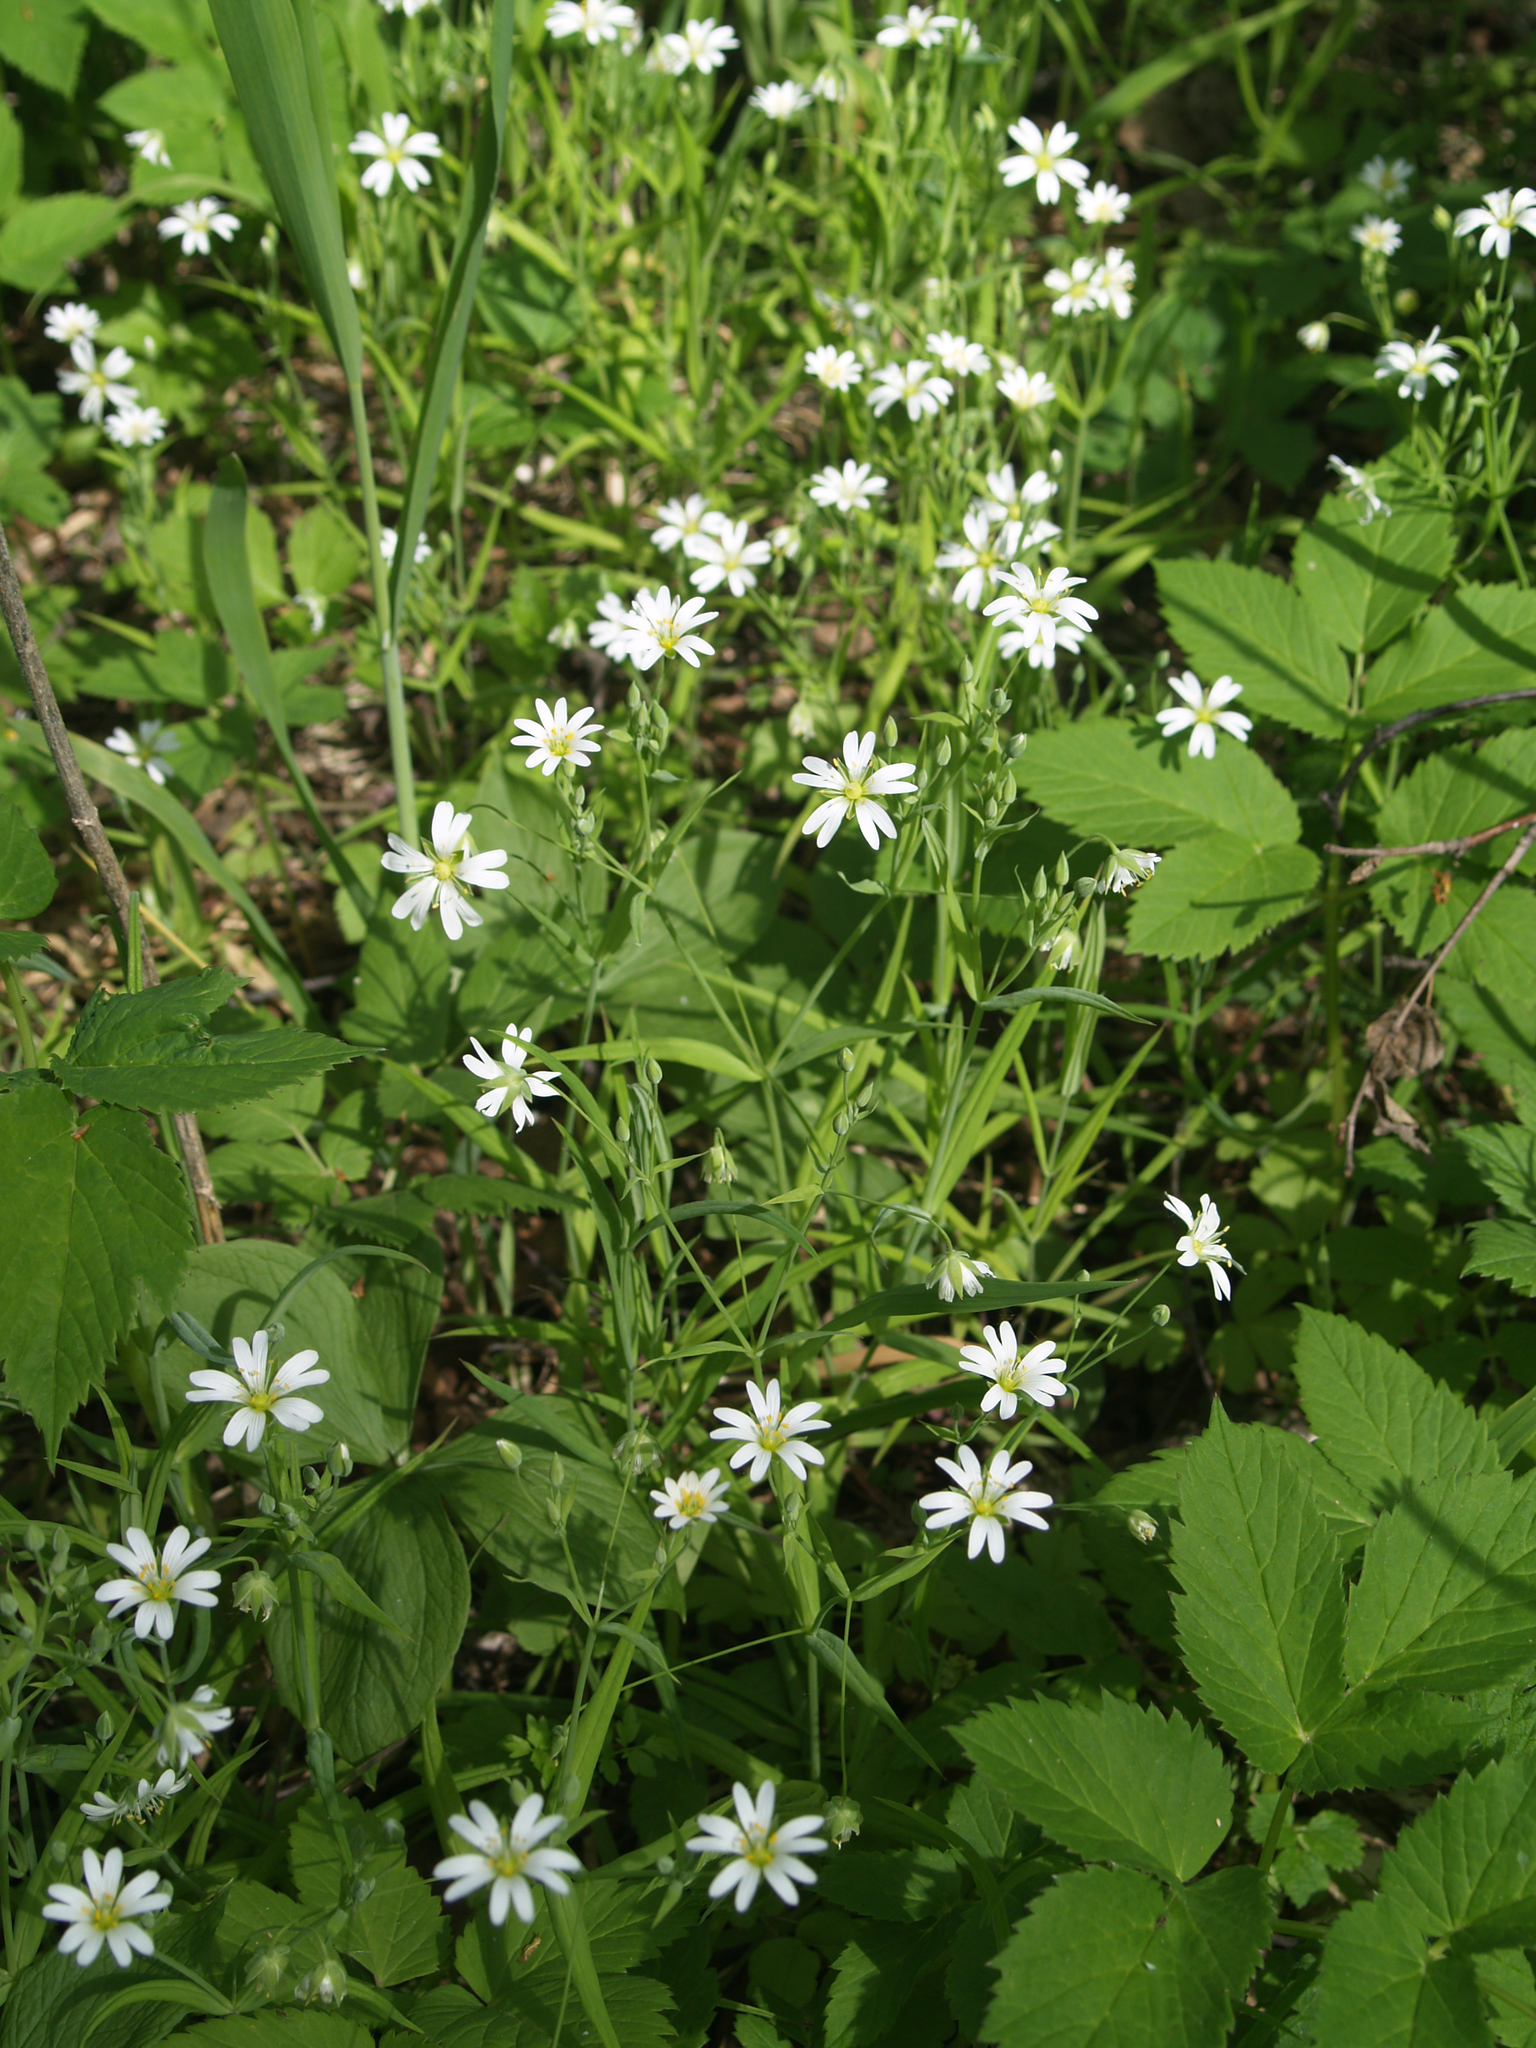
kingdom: Plantae
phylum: Tracheophyta
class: Magnoliopsida
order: Caryophyllales
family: Caryophyllaceae
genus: Rabelera
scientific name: Rabelera holostea
